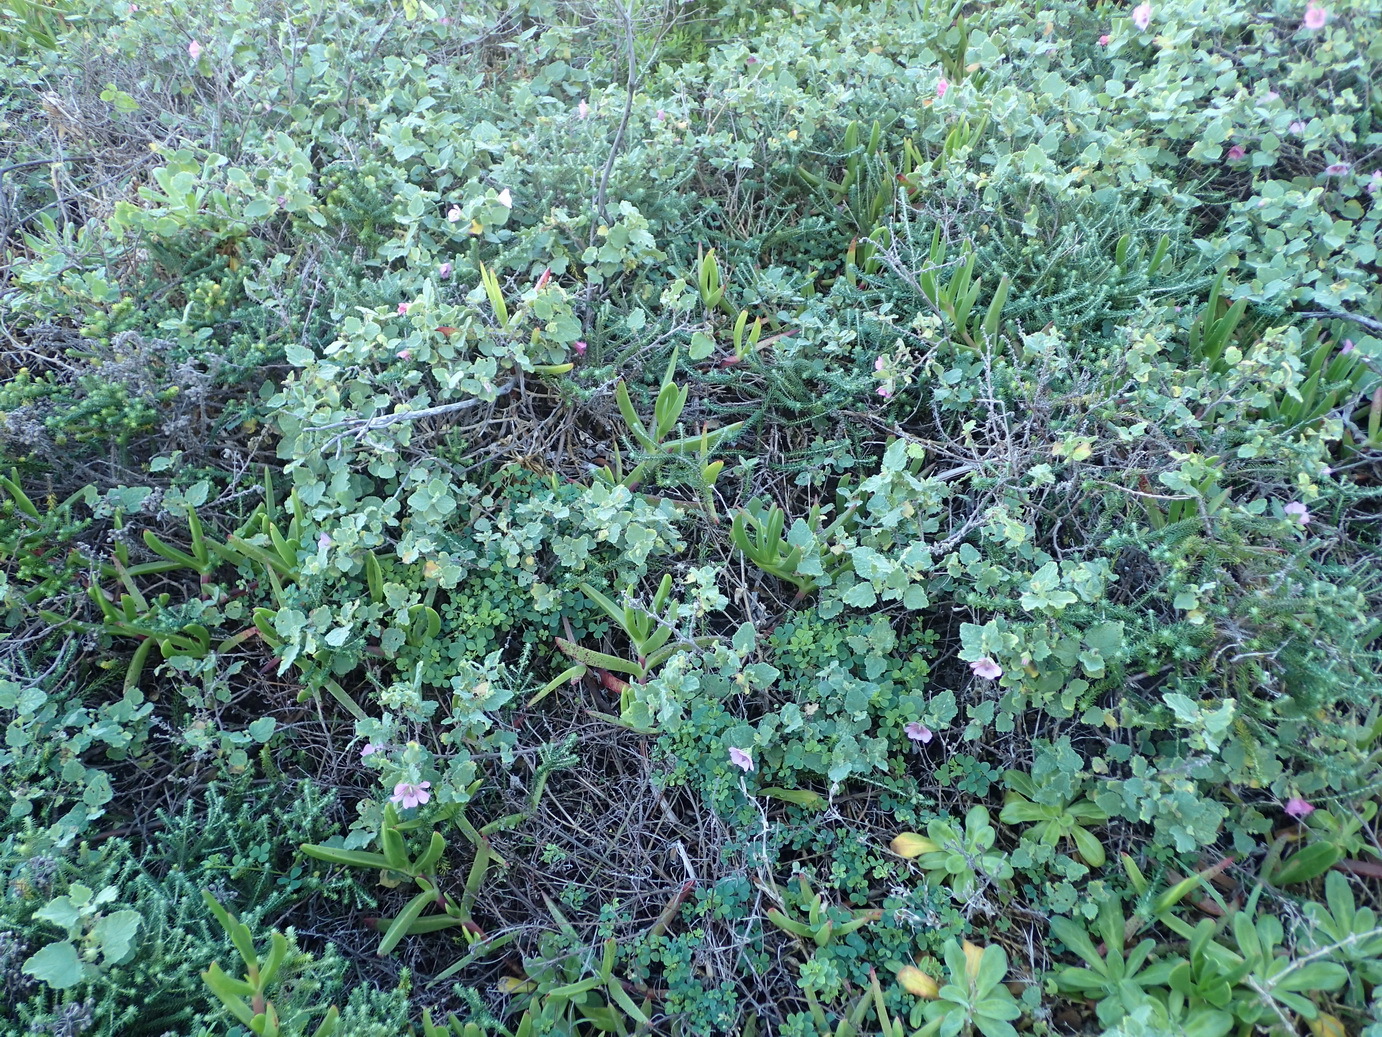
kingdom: Plantae
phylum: Tracheophyta
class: Magnoliopsida
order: Malvales
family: Malvaceae
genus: Anisodontea
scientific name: Anisodontea scabrosa
